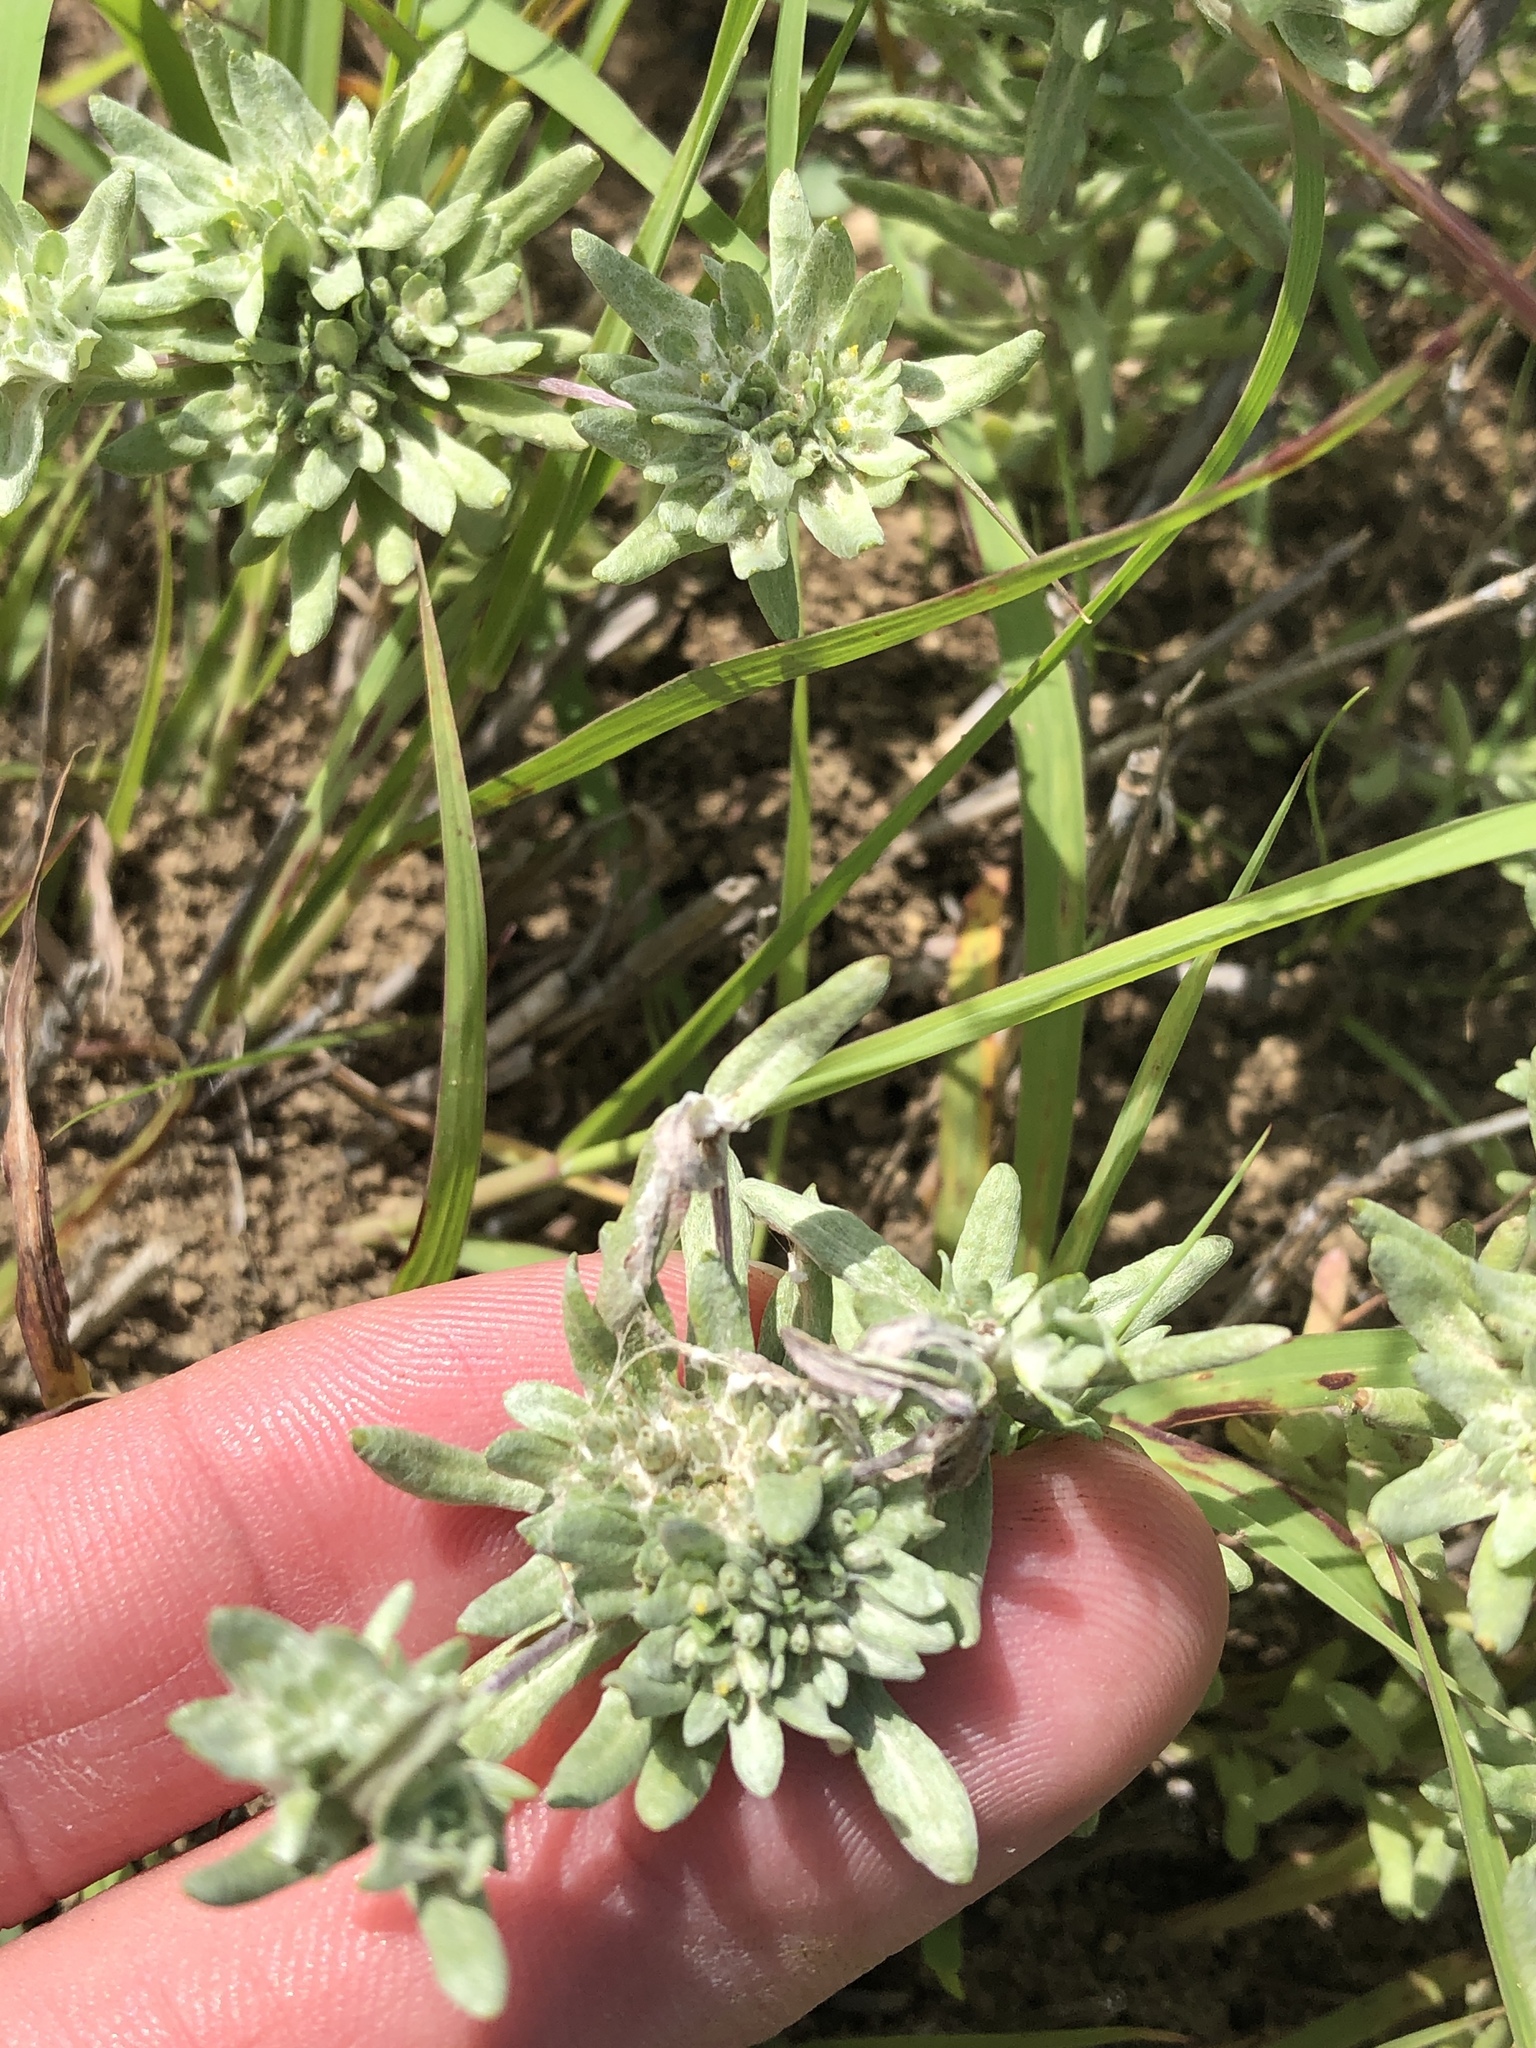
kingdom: Plantae
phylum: Tracheophyta
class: Magnoliopsida
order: Asterales
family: Asteraceae
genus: Diaperia
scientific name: Diaperia prolifera
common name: Big-head rabbit-tobacco
